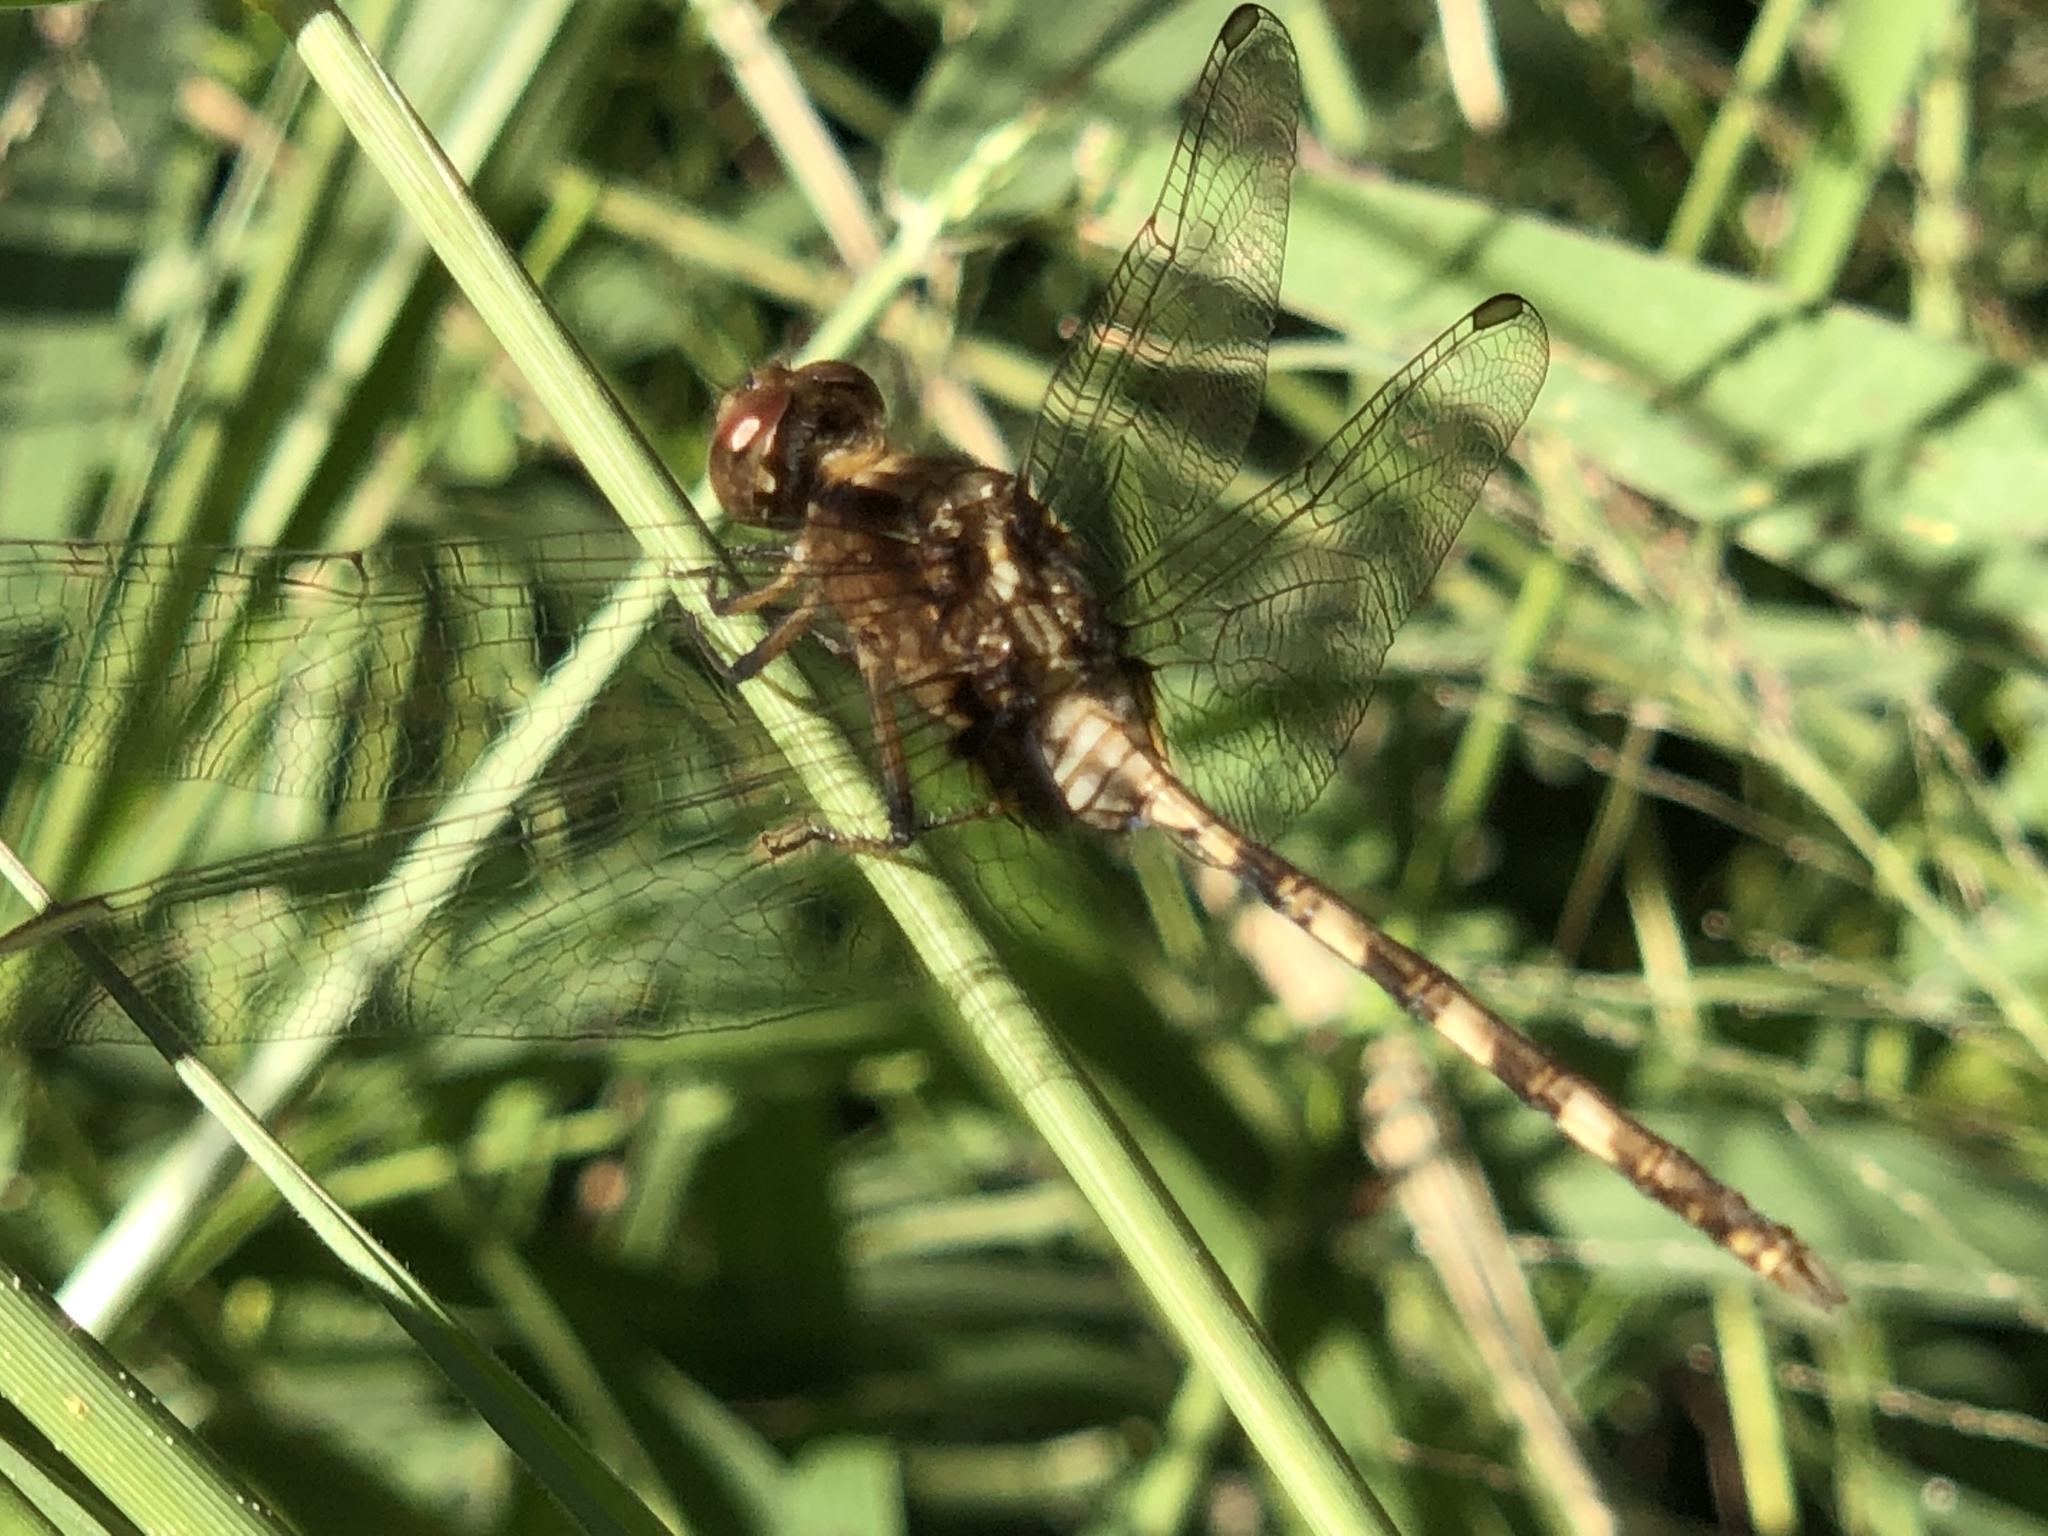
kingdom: Animalia
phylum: Arthropoda
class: Insecta
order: Odonata
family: Libellulidae
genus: Erythemis
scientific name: Erythemis plebeja
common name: Pin-tailed pondhawk
